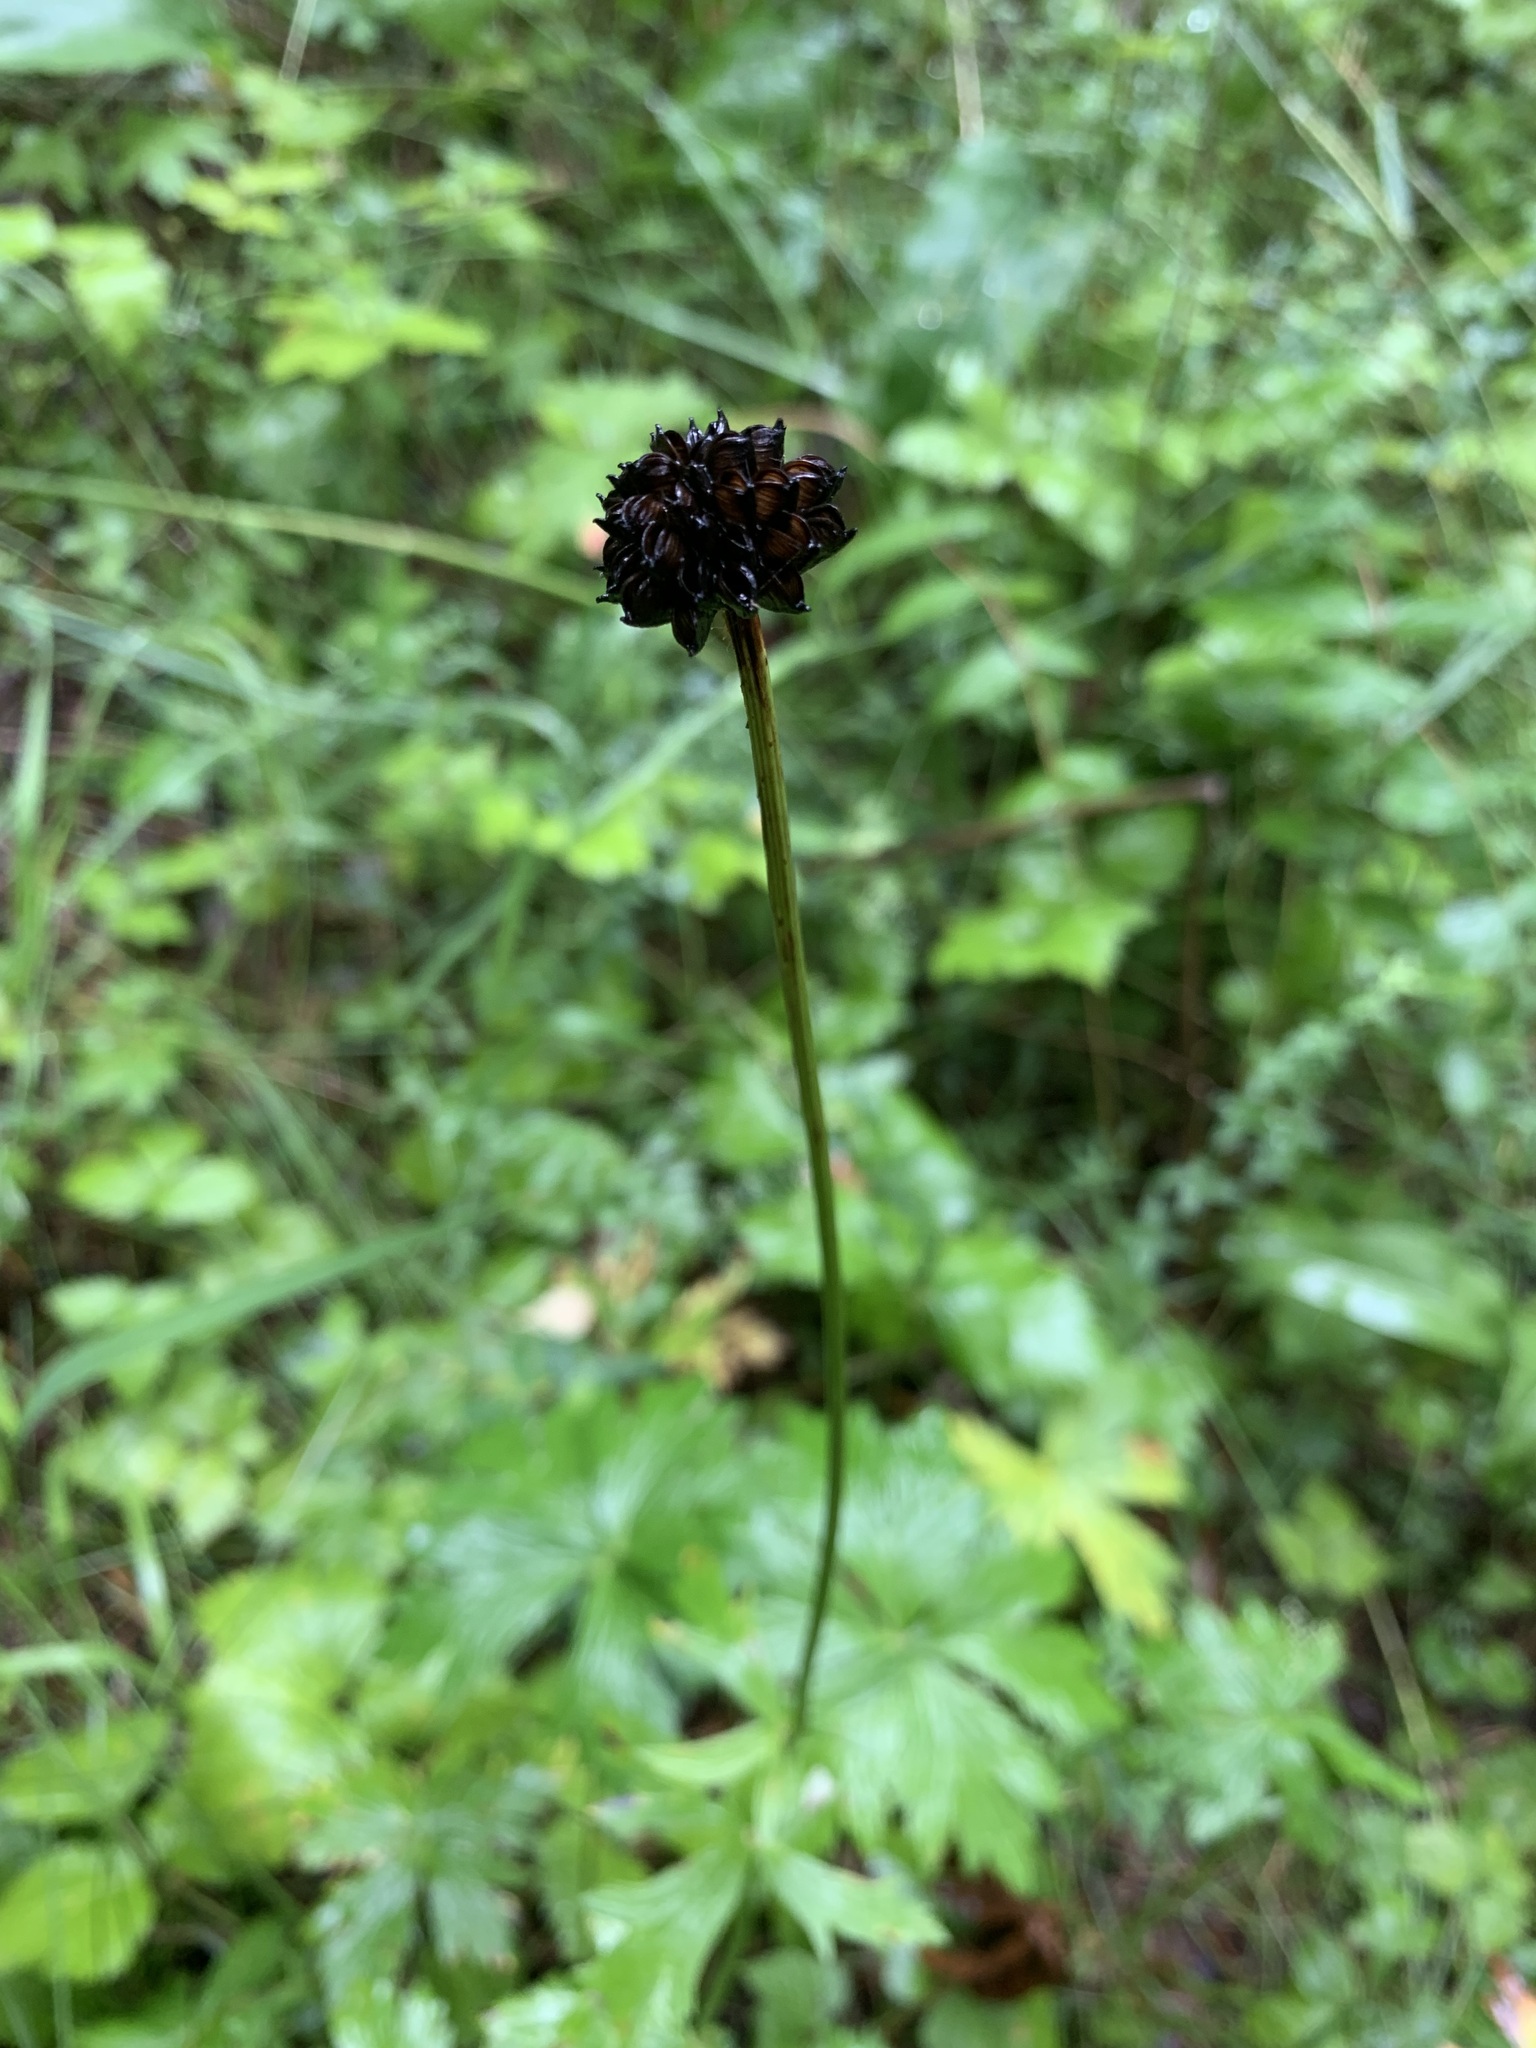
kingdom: Plantae
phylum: Tracheophyta
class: Magnoliopsida
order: Ranunculales
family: Ranunculaceae
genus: Trollius
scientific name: Trollius europaeus
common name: European globeflower
